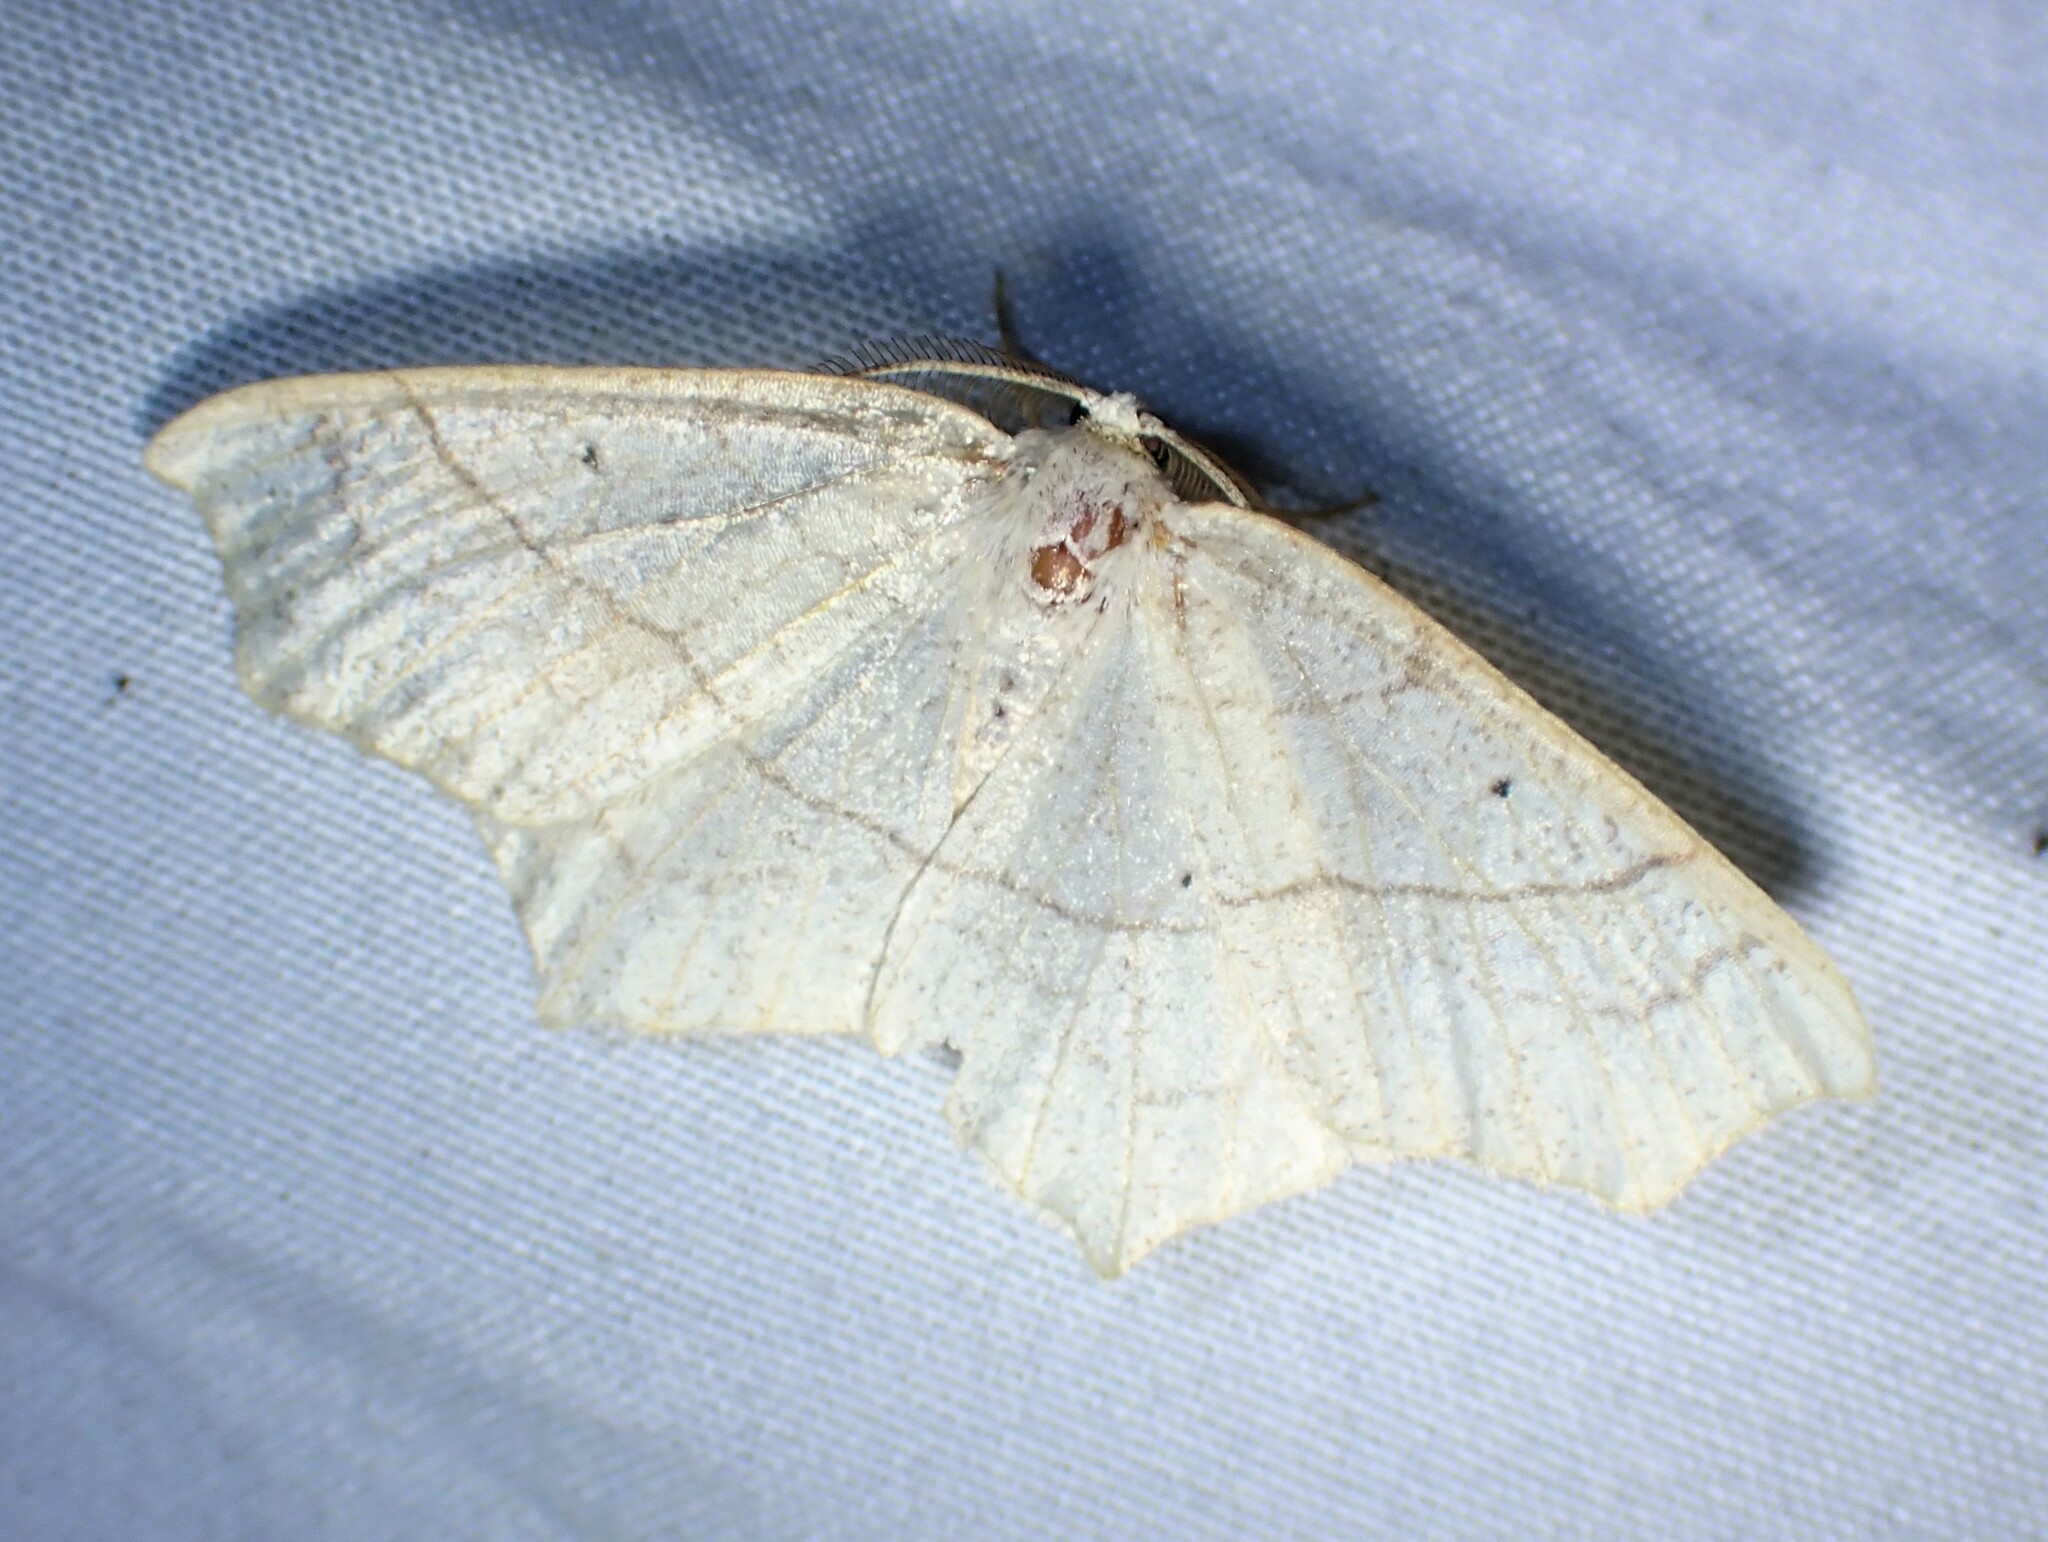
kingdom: Animalia
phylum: Arthropoda
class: Insecta
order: Lepidoptera
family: Geometridae
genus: Besma
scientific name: Besma quercivoraria
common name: Oak besma
